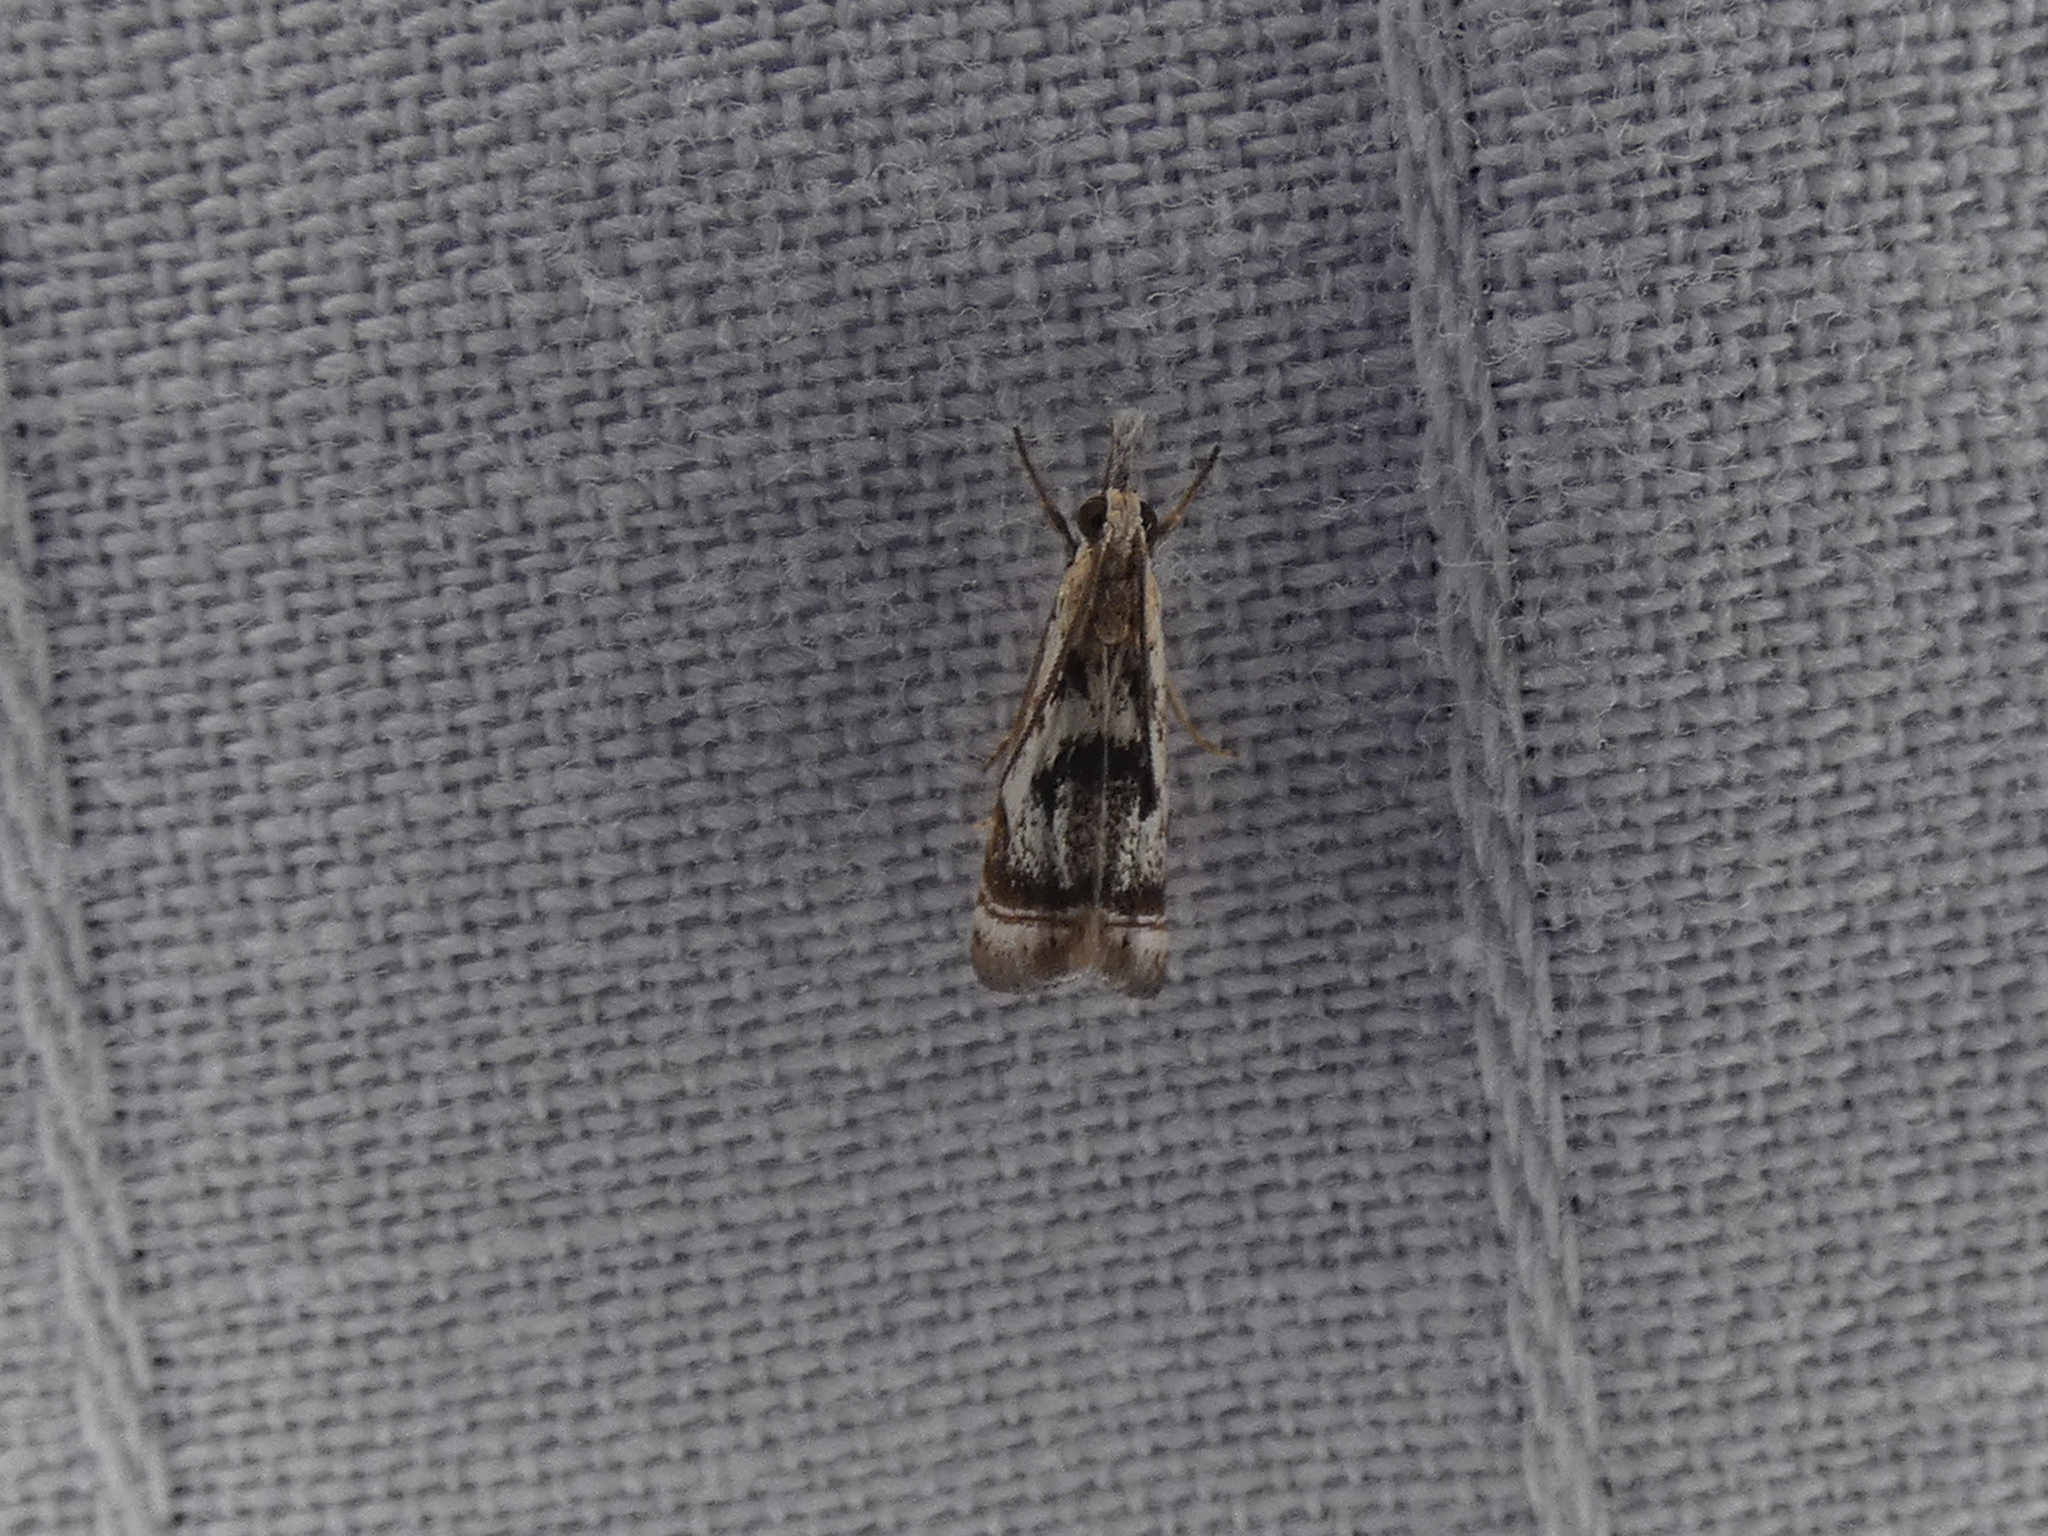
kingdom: Animalia
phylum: Arthropoda
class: Insecta
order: Lepidoptera
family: Crambidae
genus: Microcrambus
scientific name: Microcrambus elegans
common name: Elegant grass-veneer
